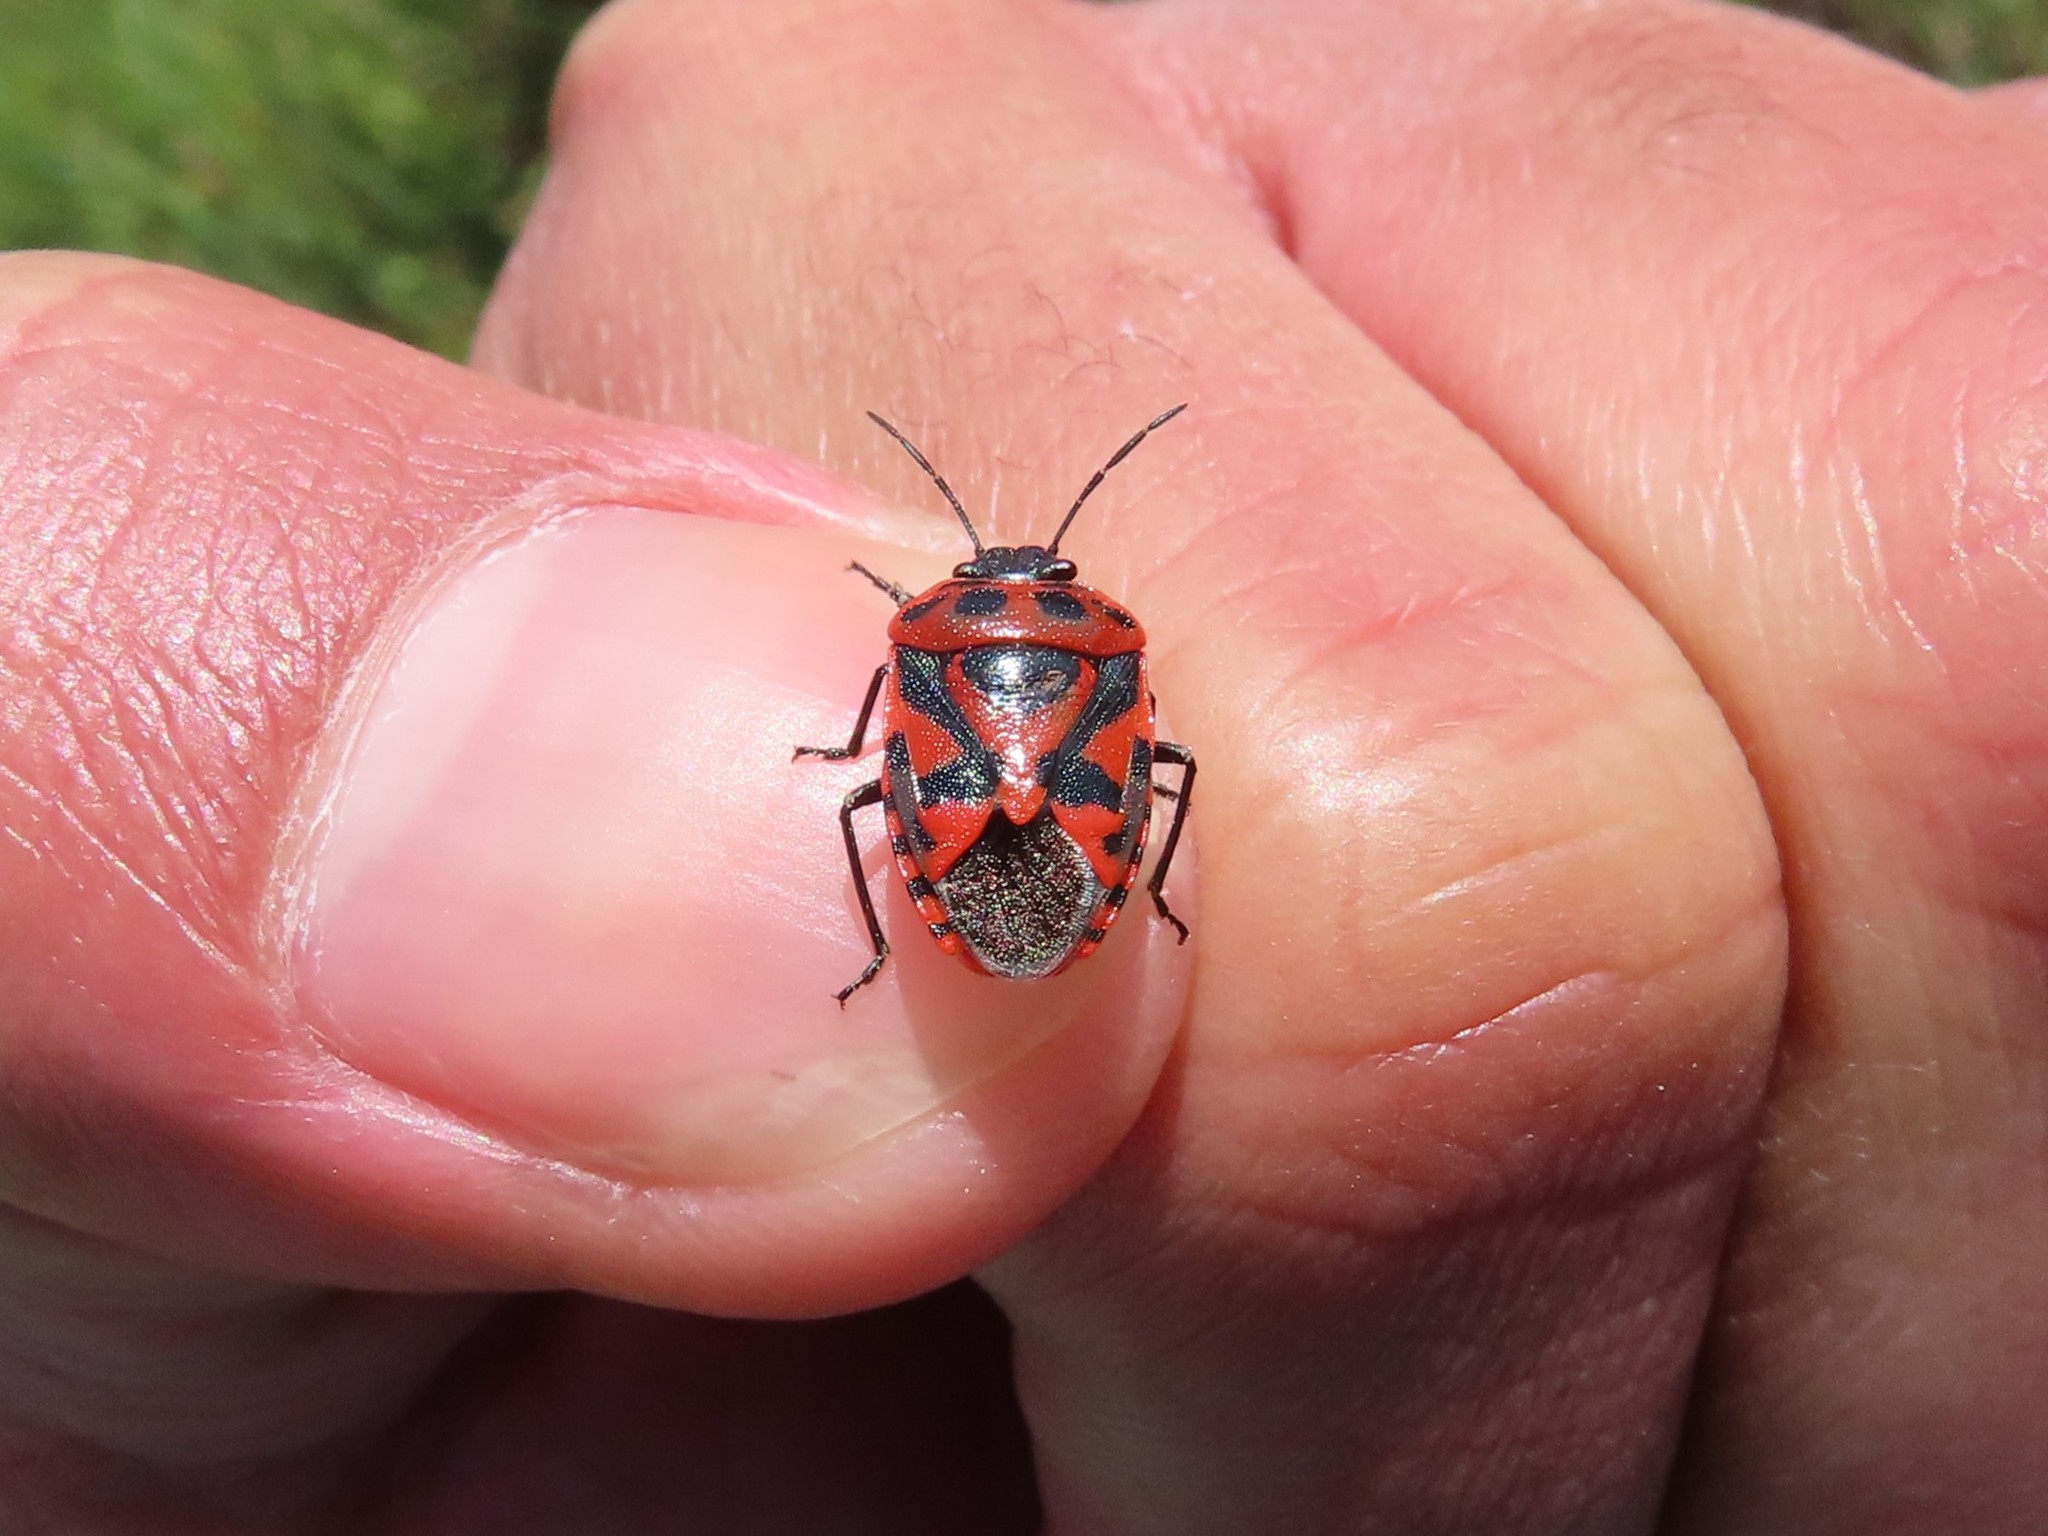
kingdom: Animalia
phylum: Arthropoda
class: Insecta
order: Hemiptera
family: Pentatomidae
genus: Eurydema
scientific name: Eurydema ornata
